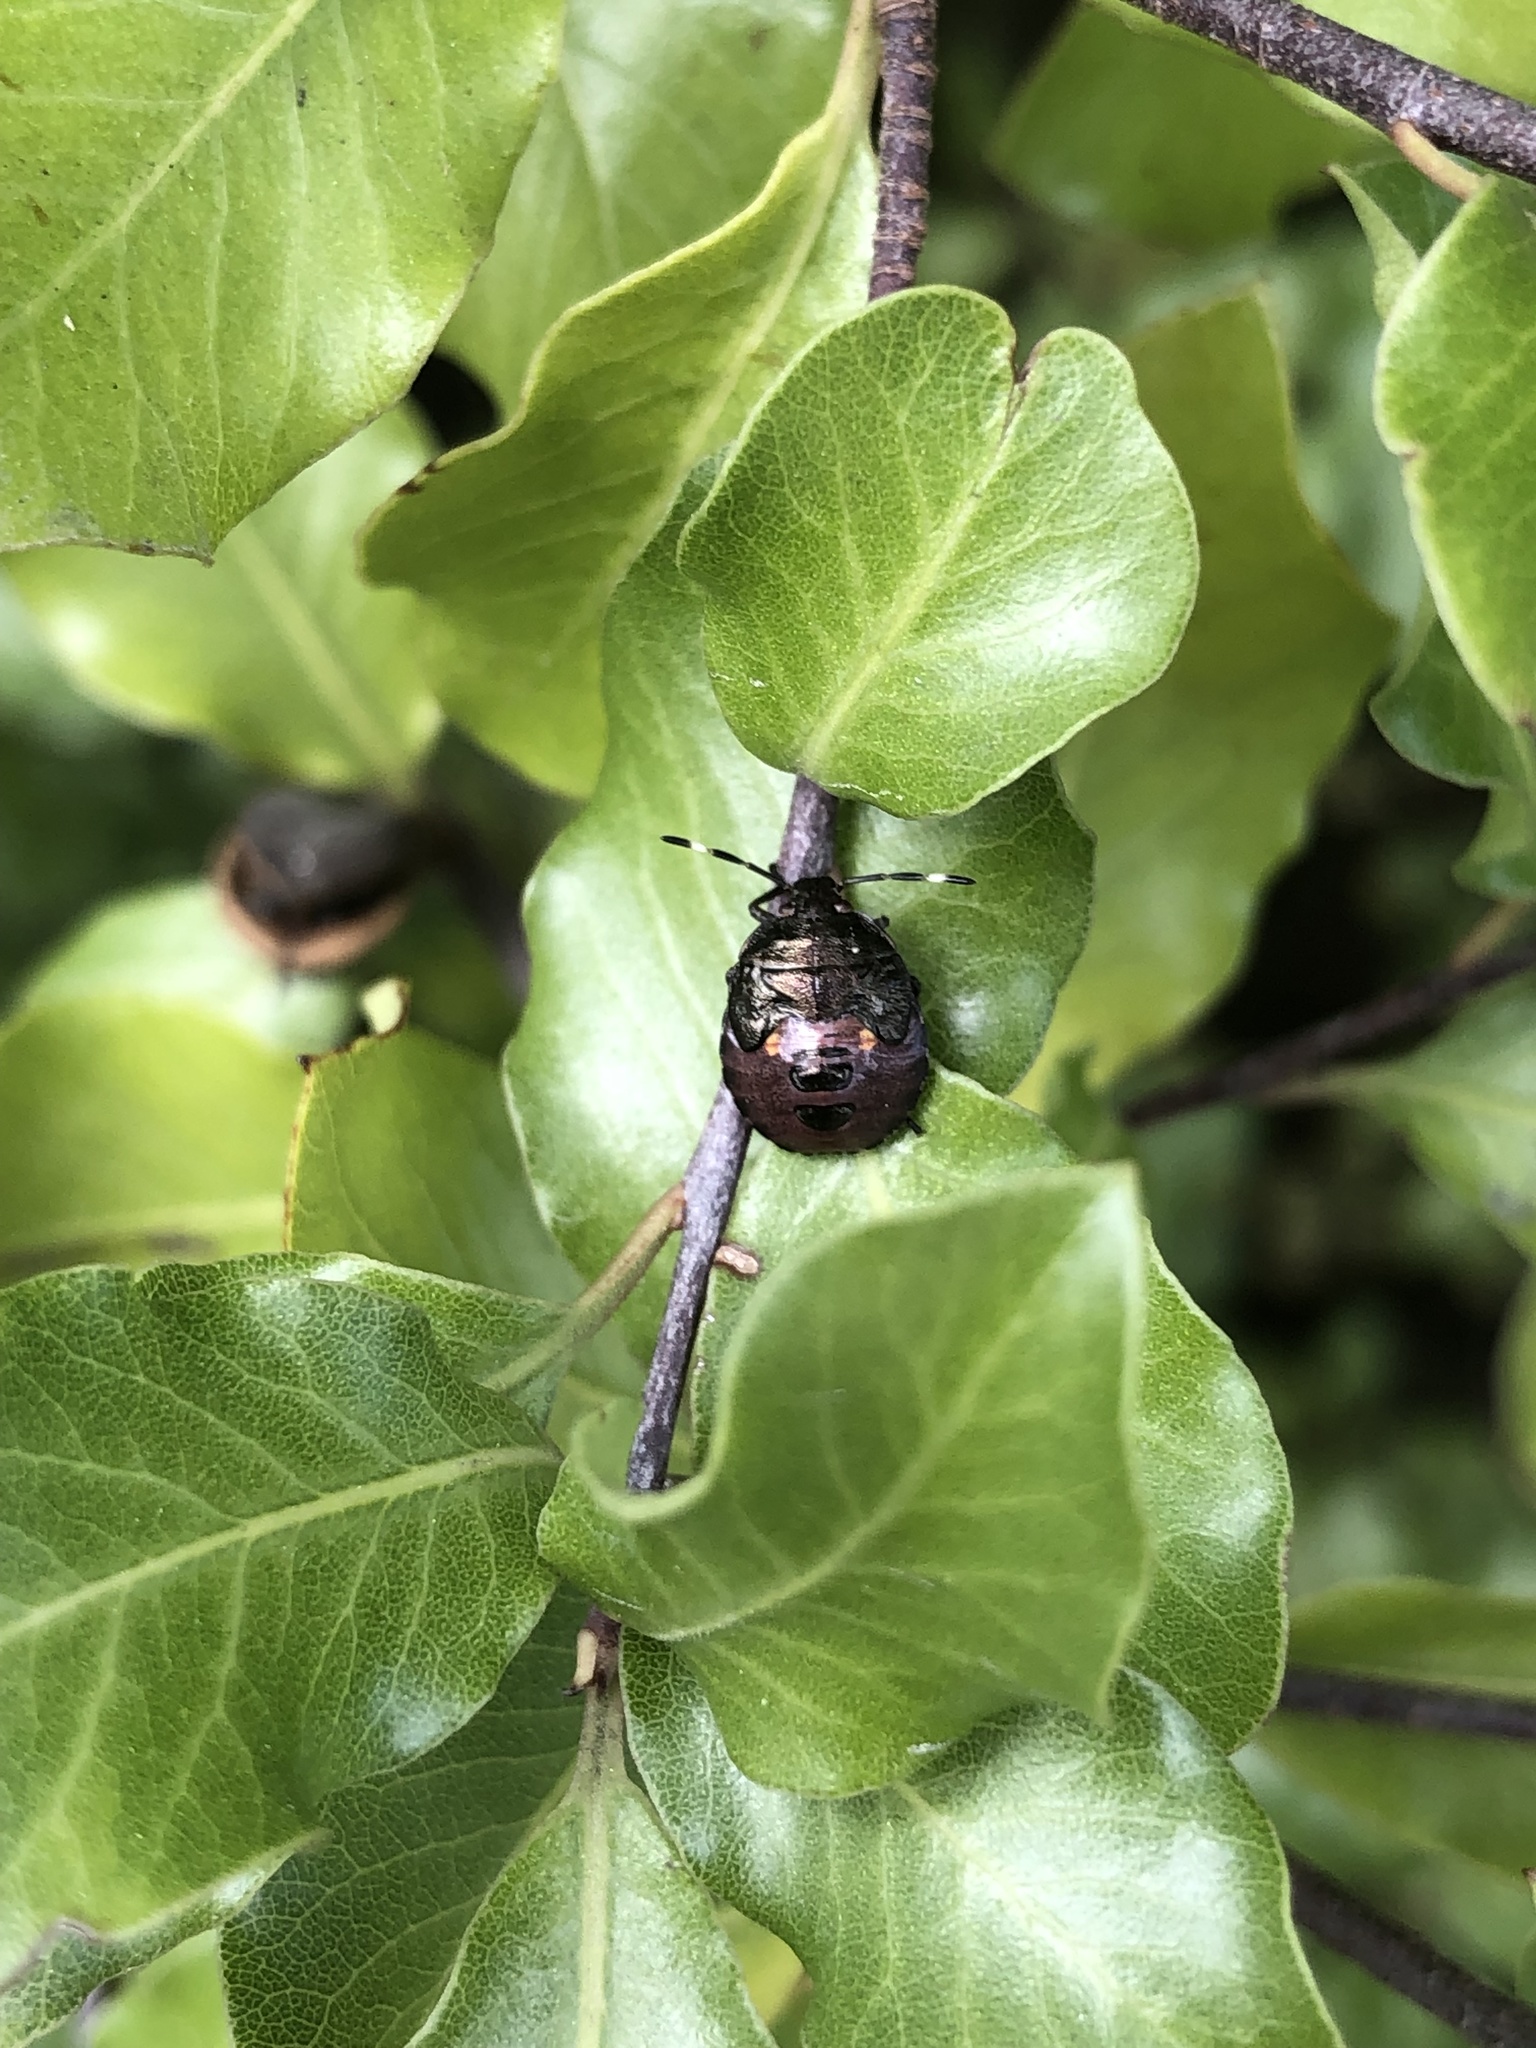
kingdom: Animalia
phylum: Arthropoda
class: Insecta
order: Hemiptera
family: Pentatomidae
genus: Monteithiella
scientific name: Monteithiella
